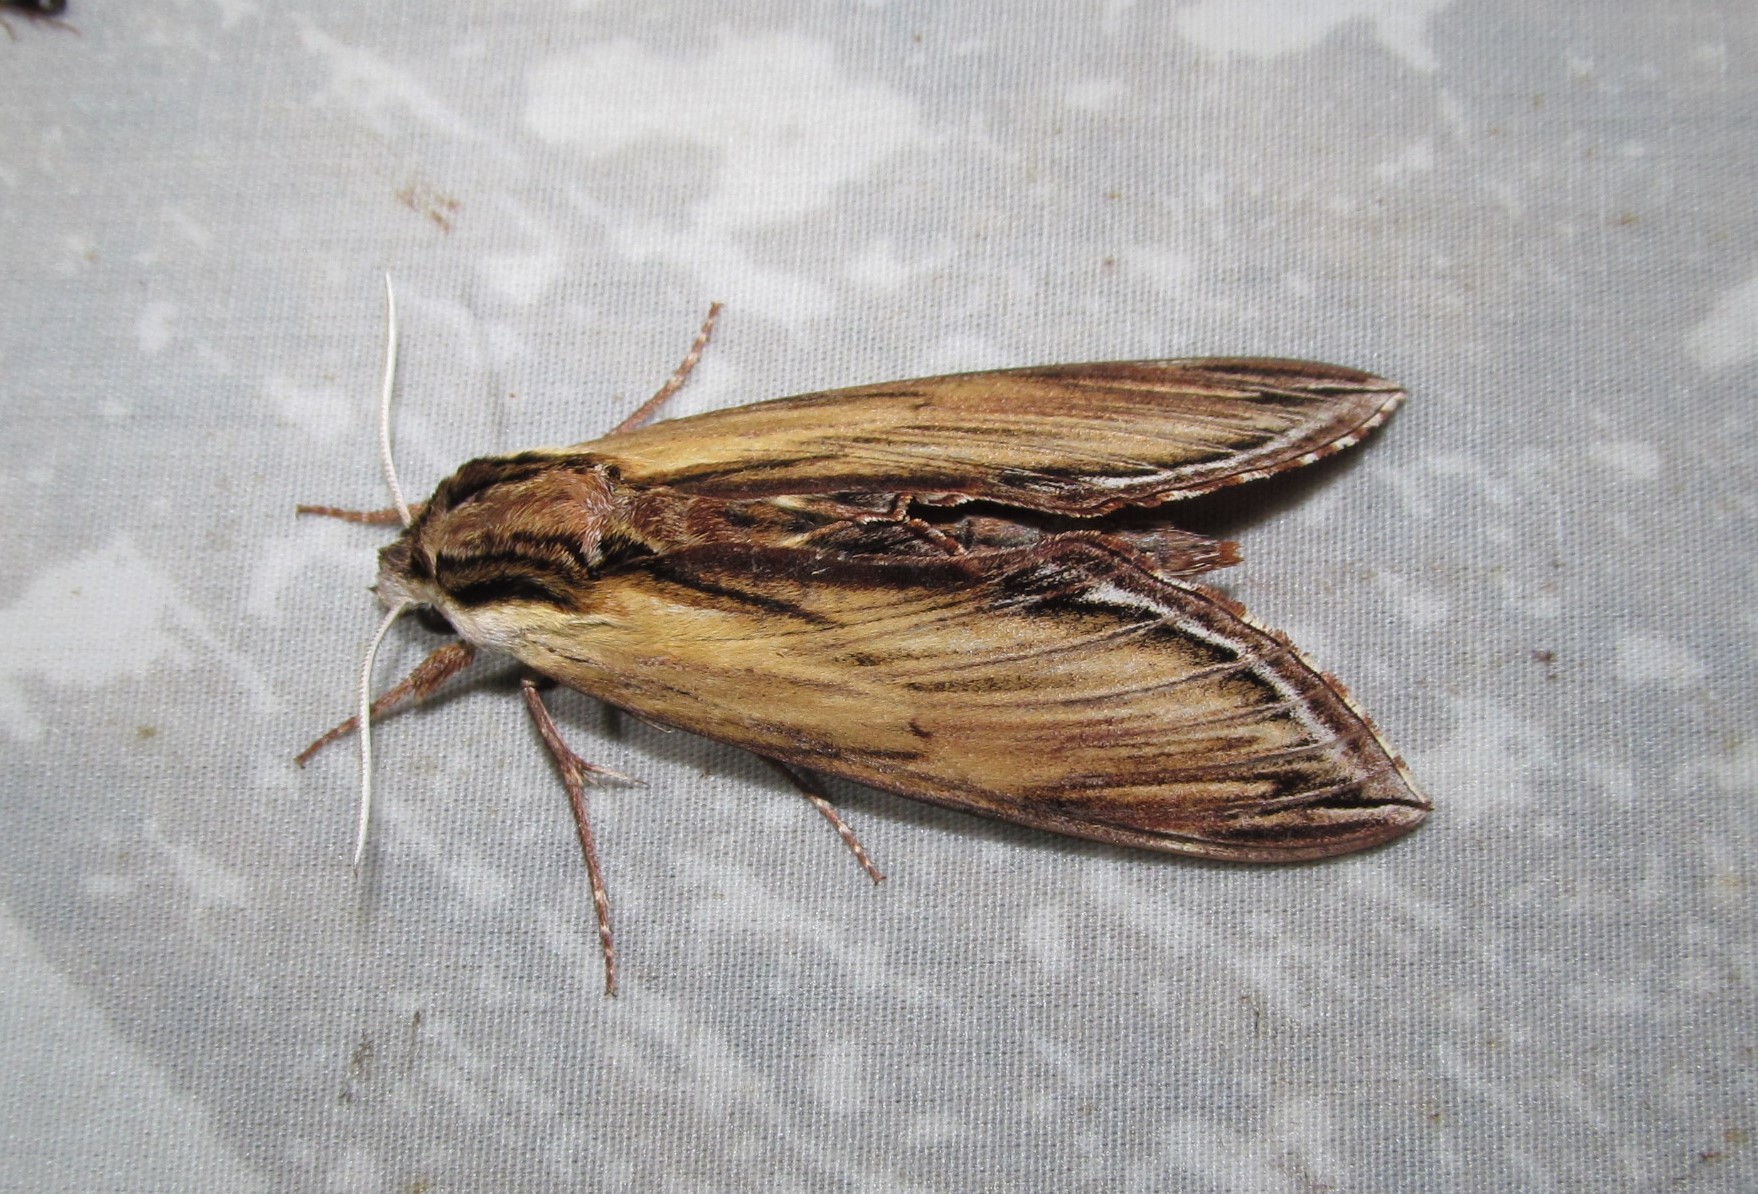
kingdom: Animalia
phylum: Arthropoda
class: Insecta
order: Lepidoptera
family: Sphingidae
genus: Sphinx
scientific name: Sphinx kalmiae
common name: Laurel sphinx
